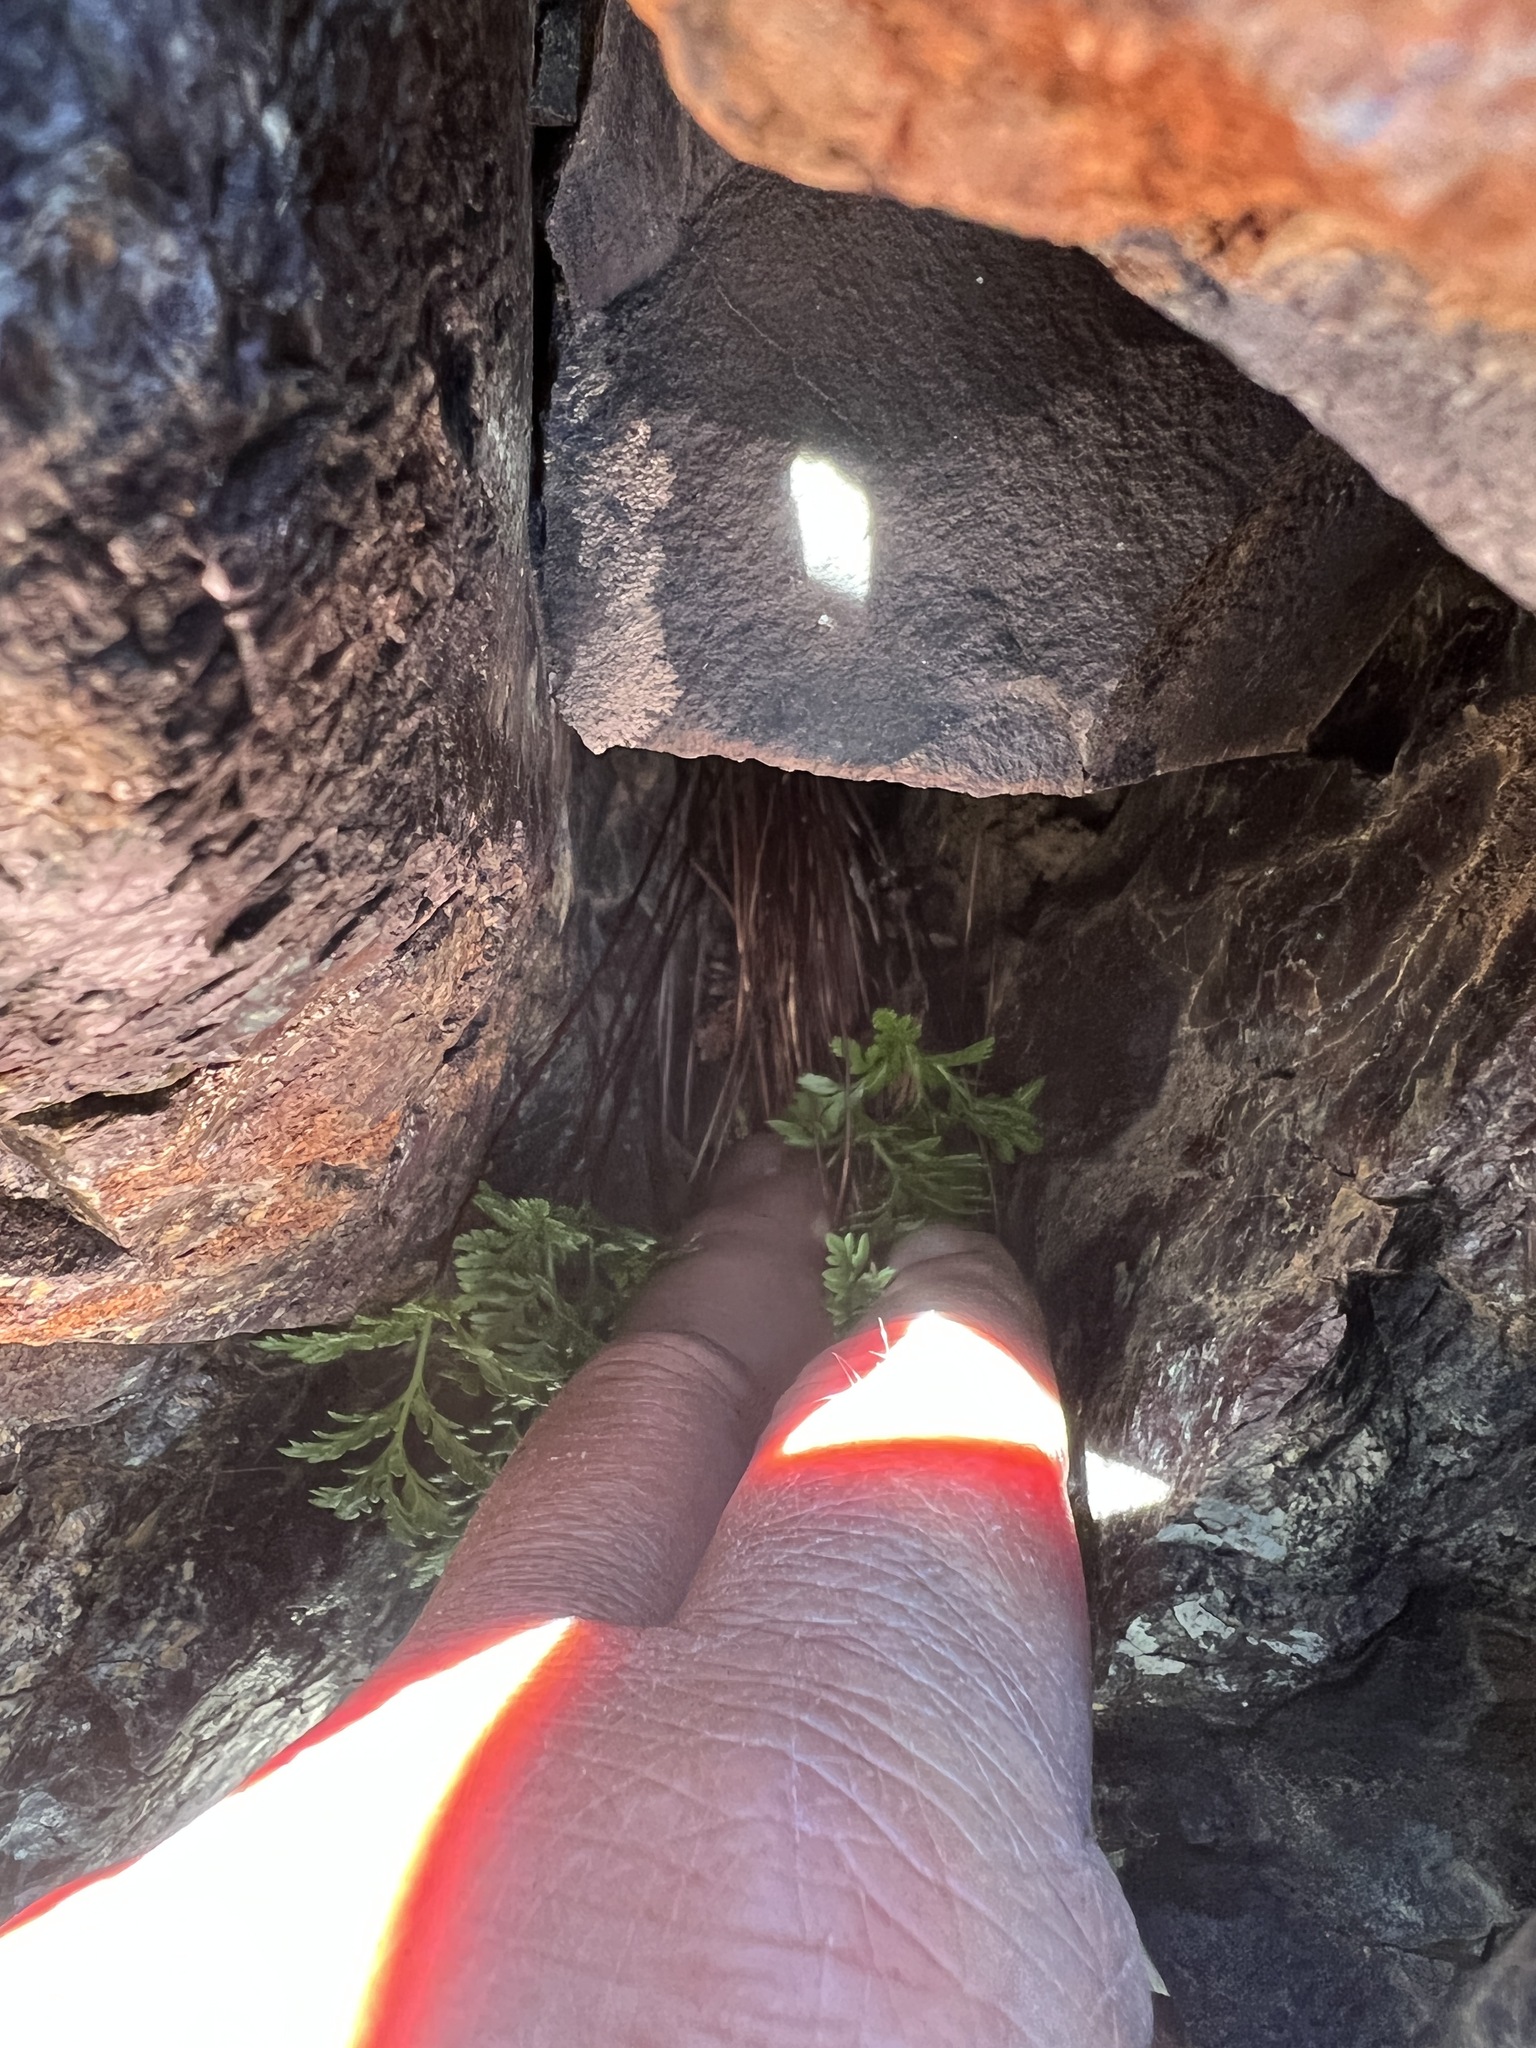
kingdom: Plantae
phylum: Tracheophyta
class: Polypodiopsida
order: Polypodiales
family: Pteridaceae
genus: Aspidotis
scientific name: Aspidotis densa
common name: Indian's dream
